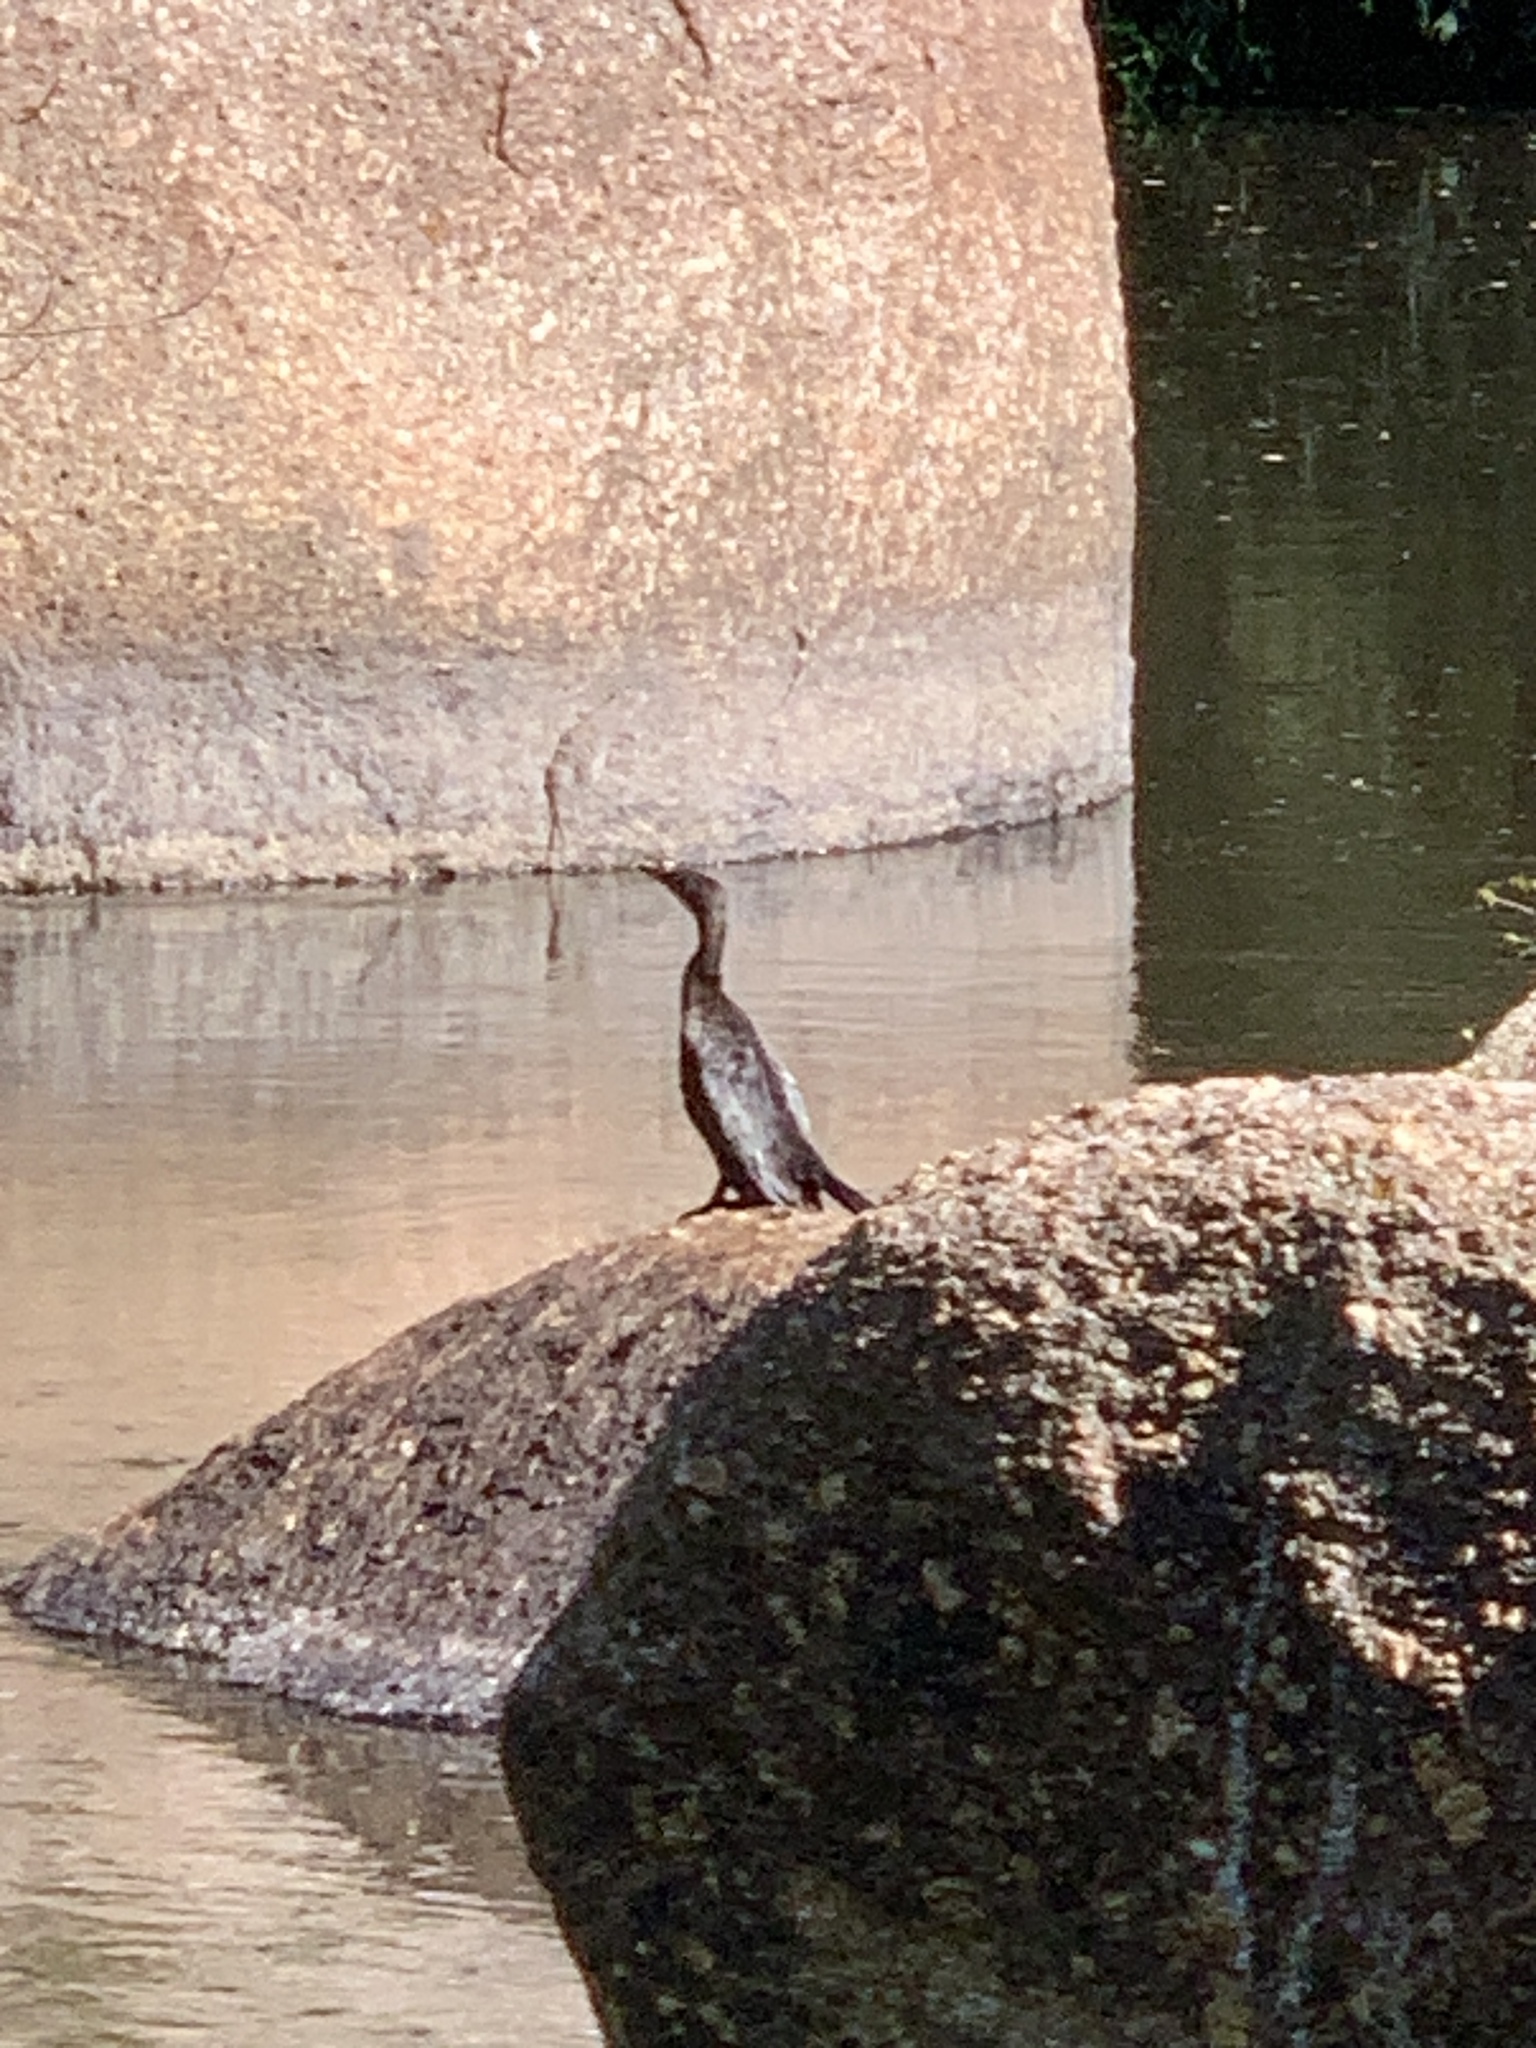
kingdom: Animalia
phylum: Chordata
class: Aves
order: Suliformes
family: Phalacrocoracidae
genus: Microcarbo
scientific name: Microcarbo africanus
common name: Long-tailed cormorant
